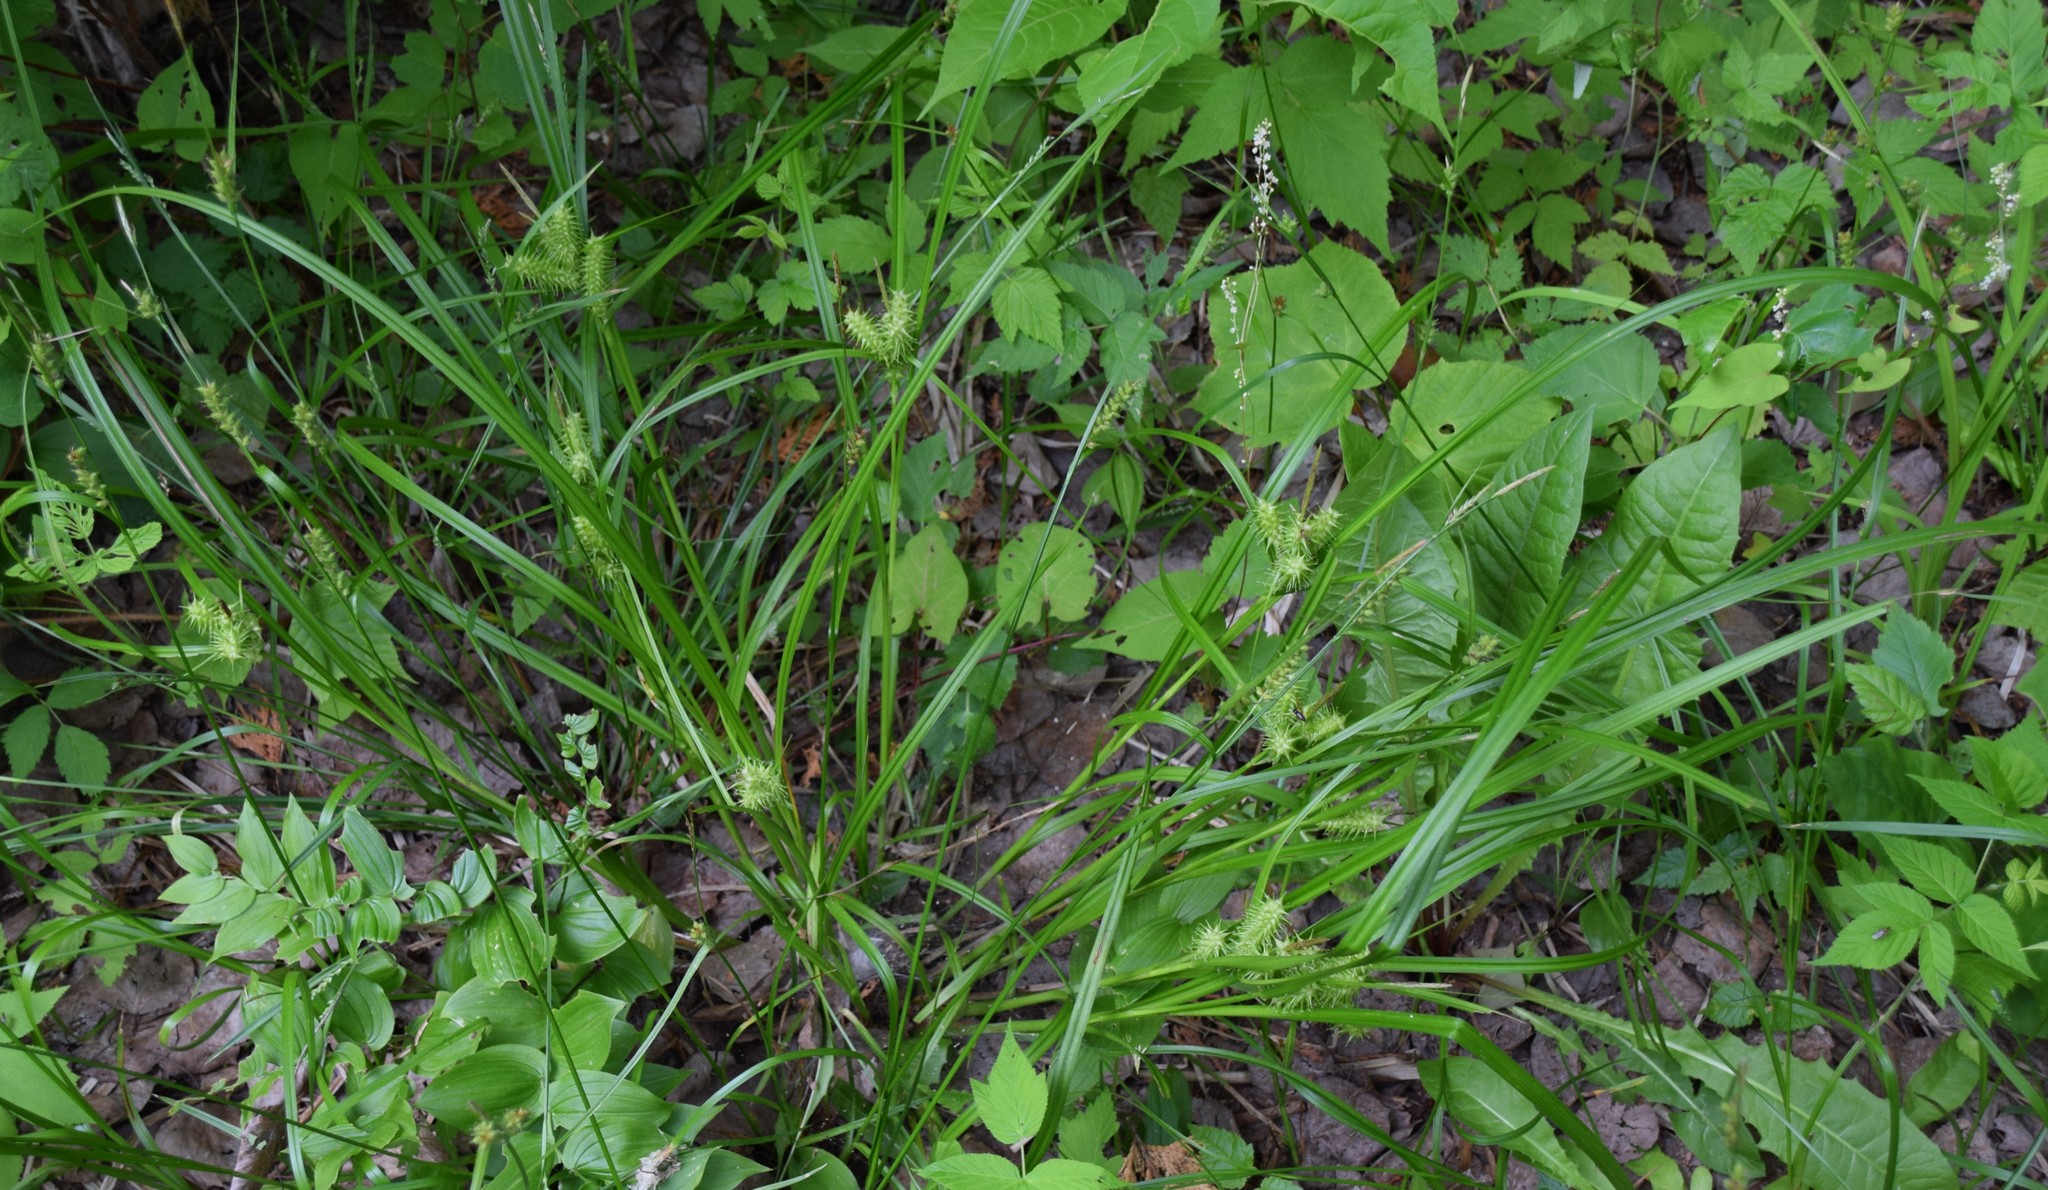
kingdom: Plantae
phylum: Tracheophyta
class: Liliopsida
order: Poales
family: Cyperaceae
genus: Carex
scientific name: Carex retrorsa
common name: Knot-sheath sedge
